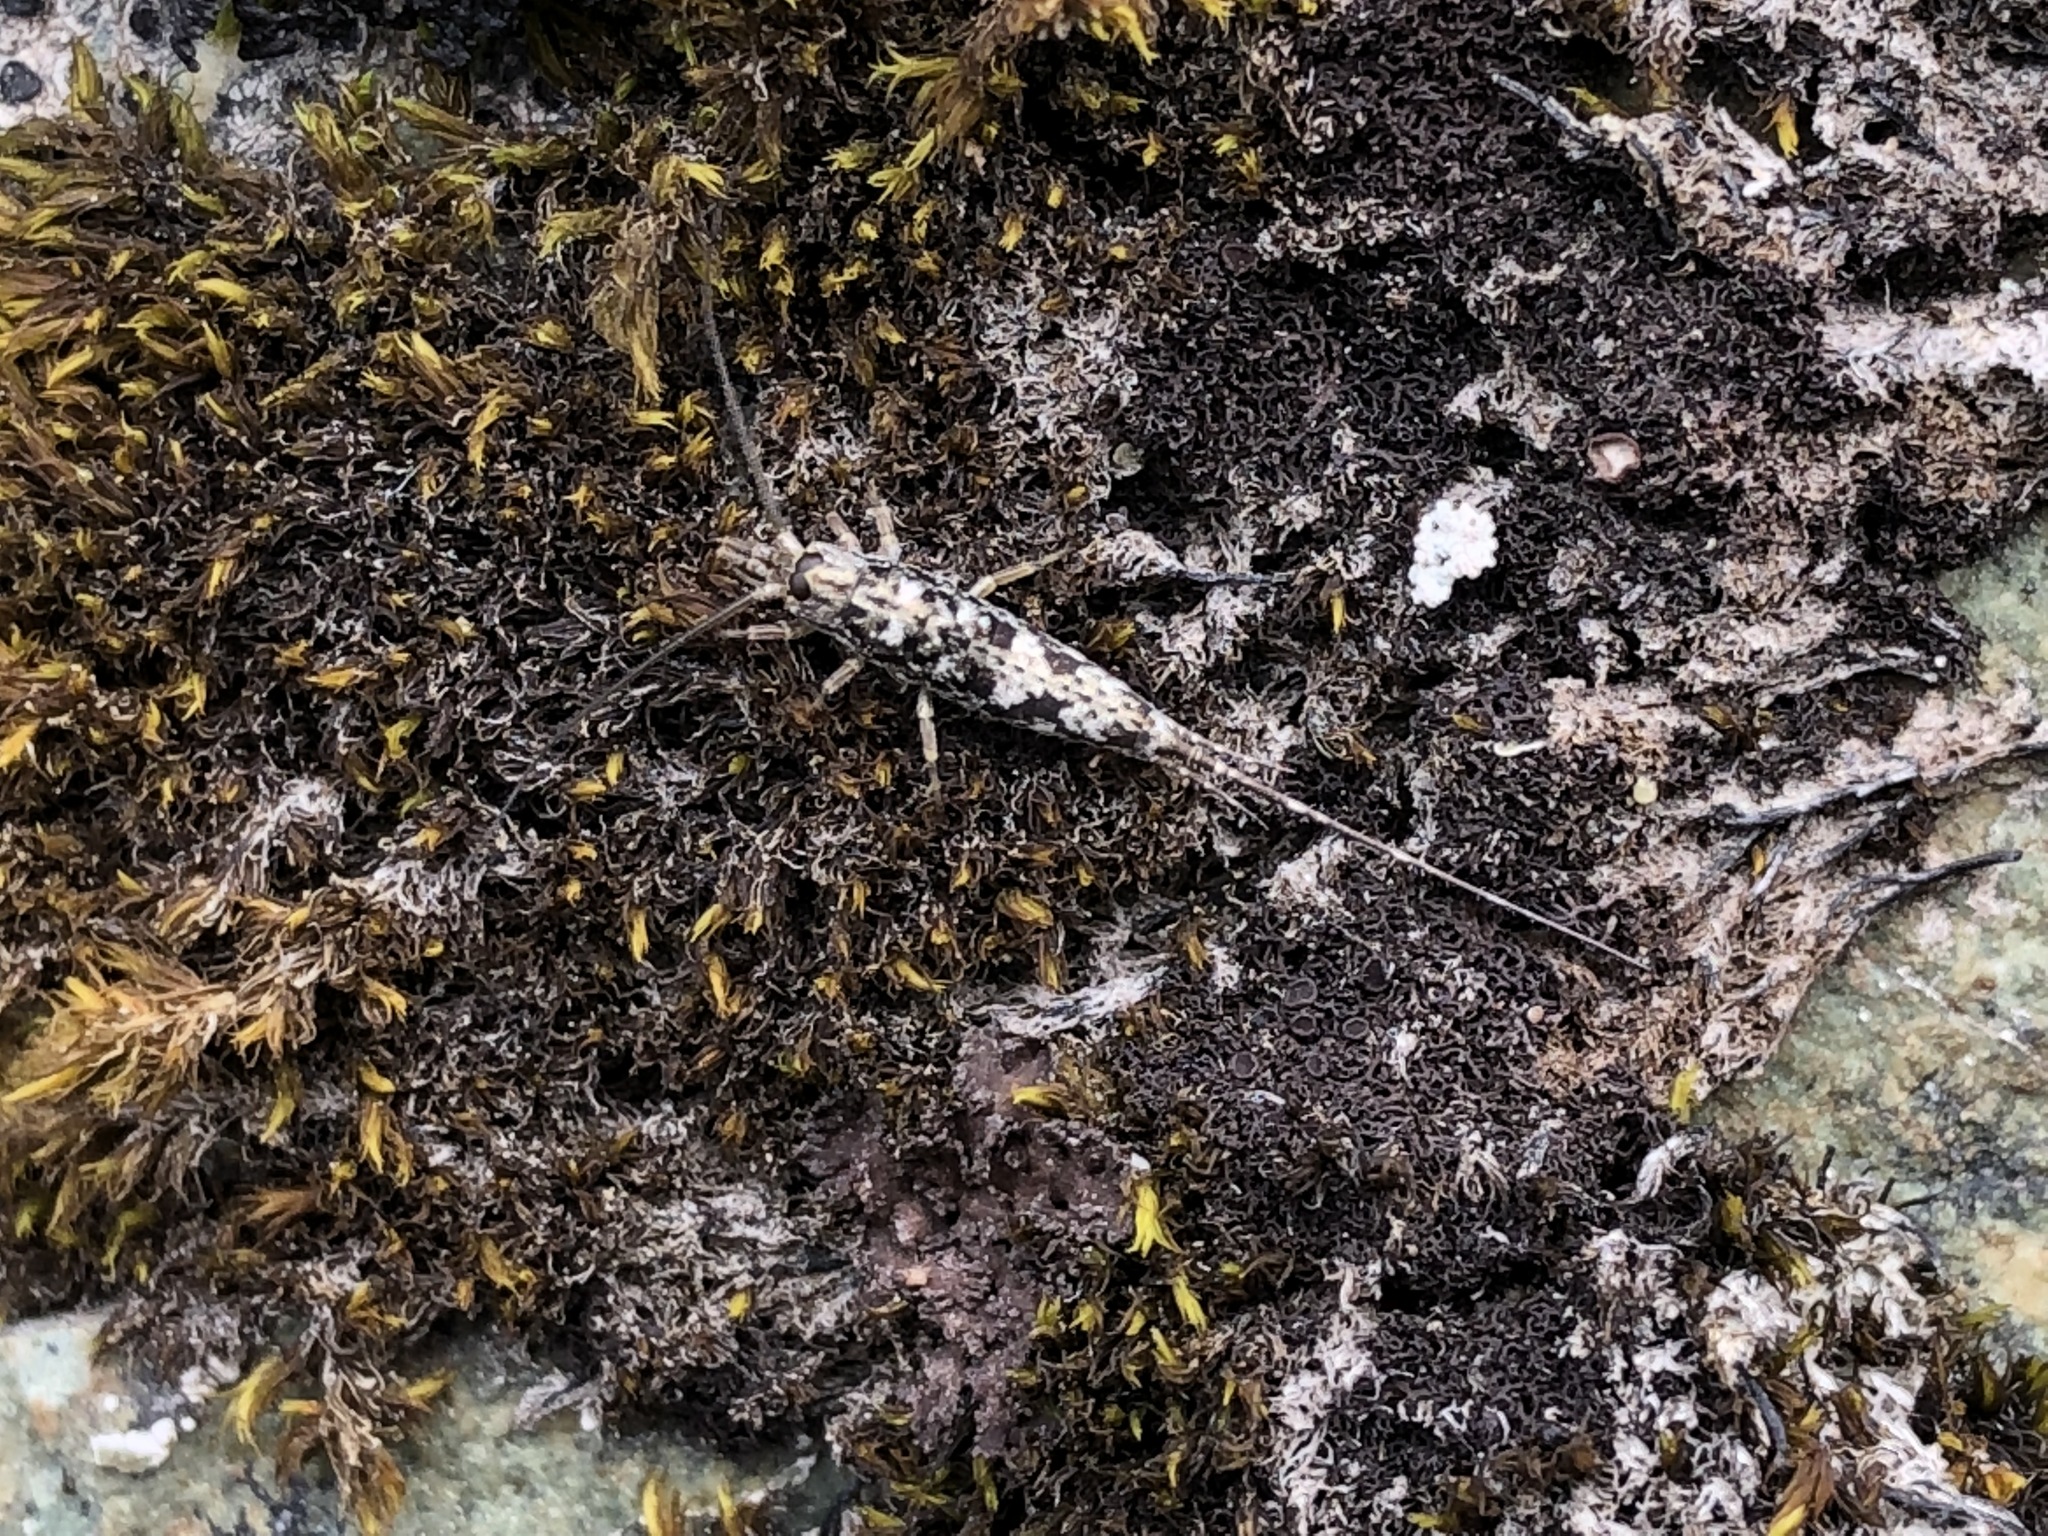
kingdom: Animalia
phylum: Arthropoda
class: Insecta
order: Archaeognatha
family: Machilidae
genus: Petridiobius
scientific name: Petridiobius arcticus
